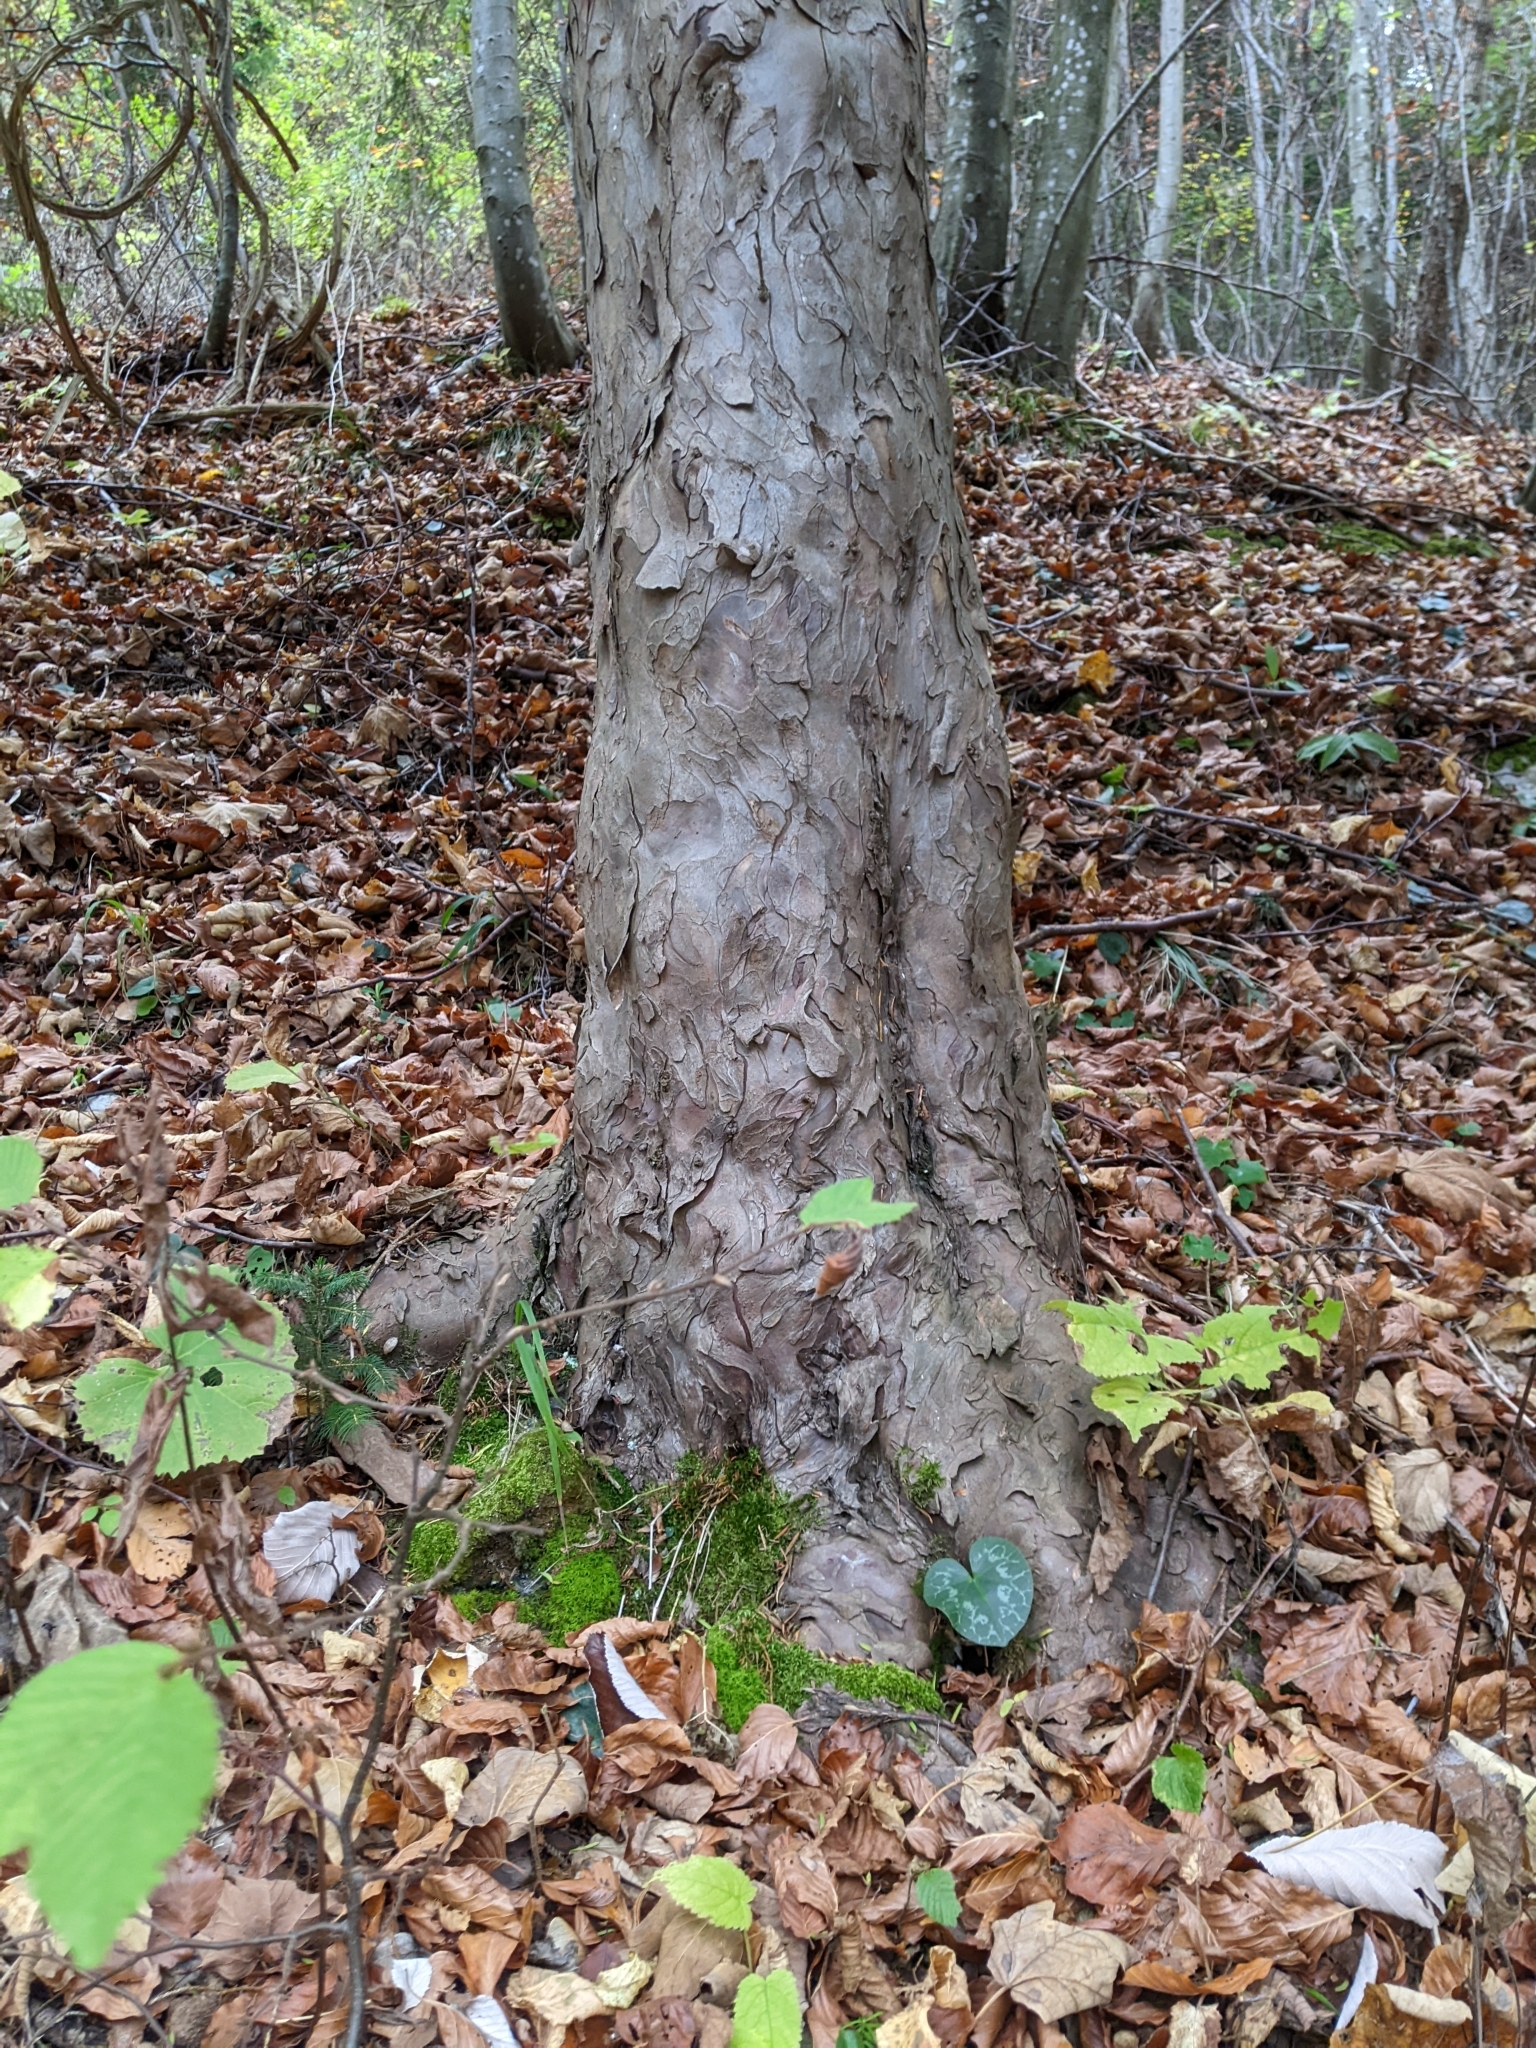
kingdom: Plantae
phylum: Tracheophyta
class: Pinopsida
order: Pinales
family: Taxaceae
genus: Taxus
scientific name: Taxus baccata
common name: Yew
